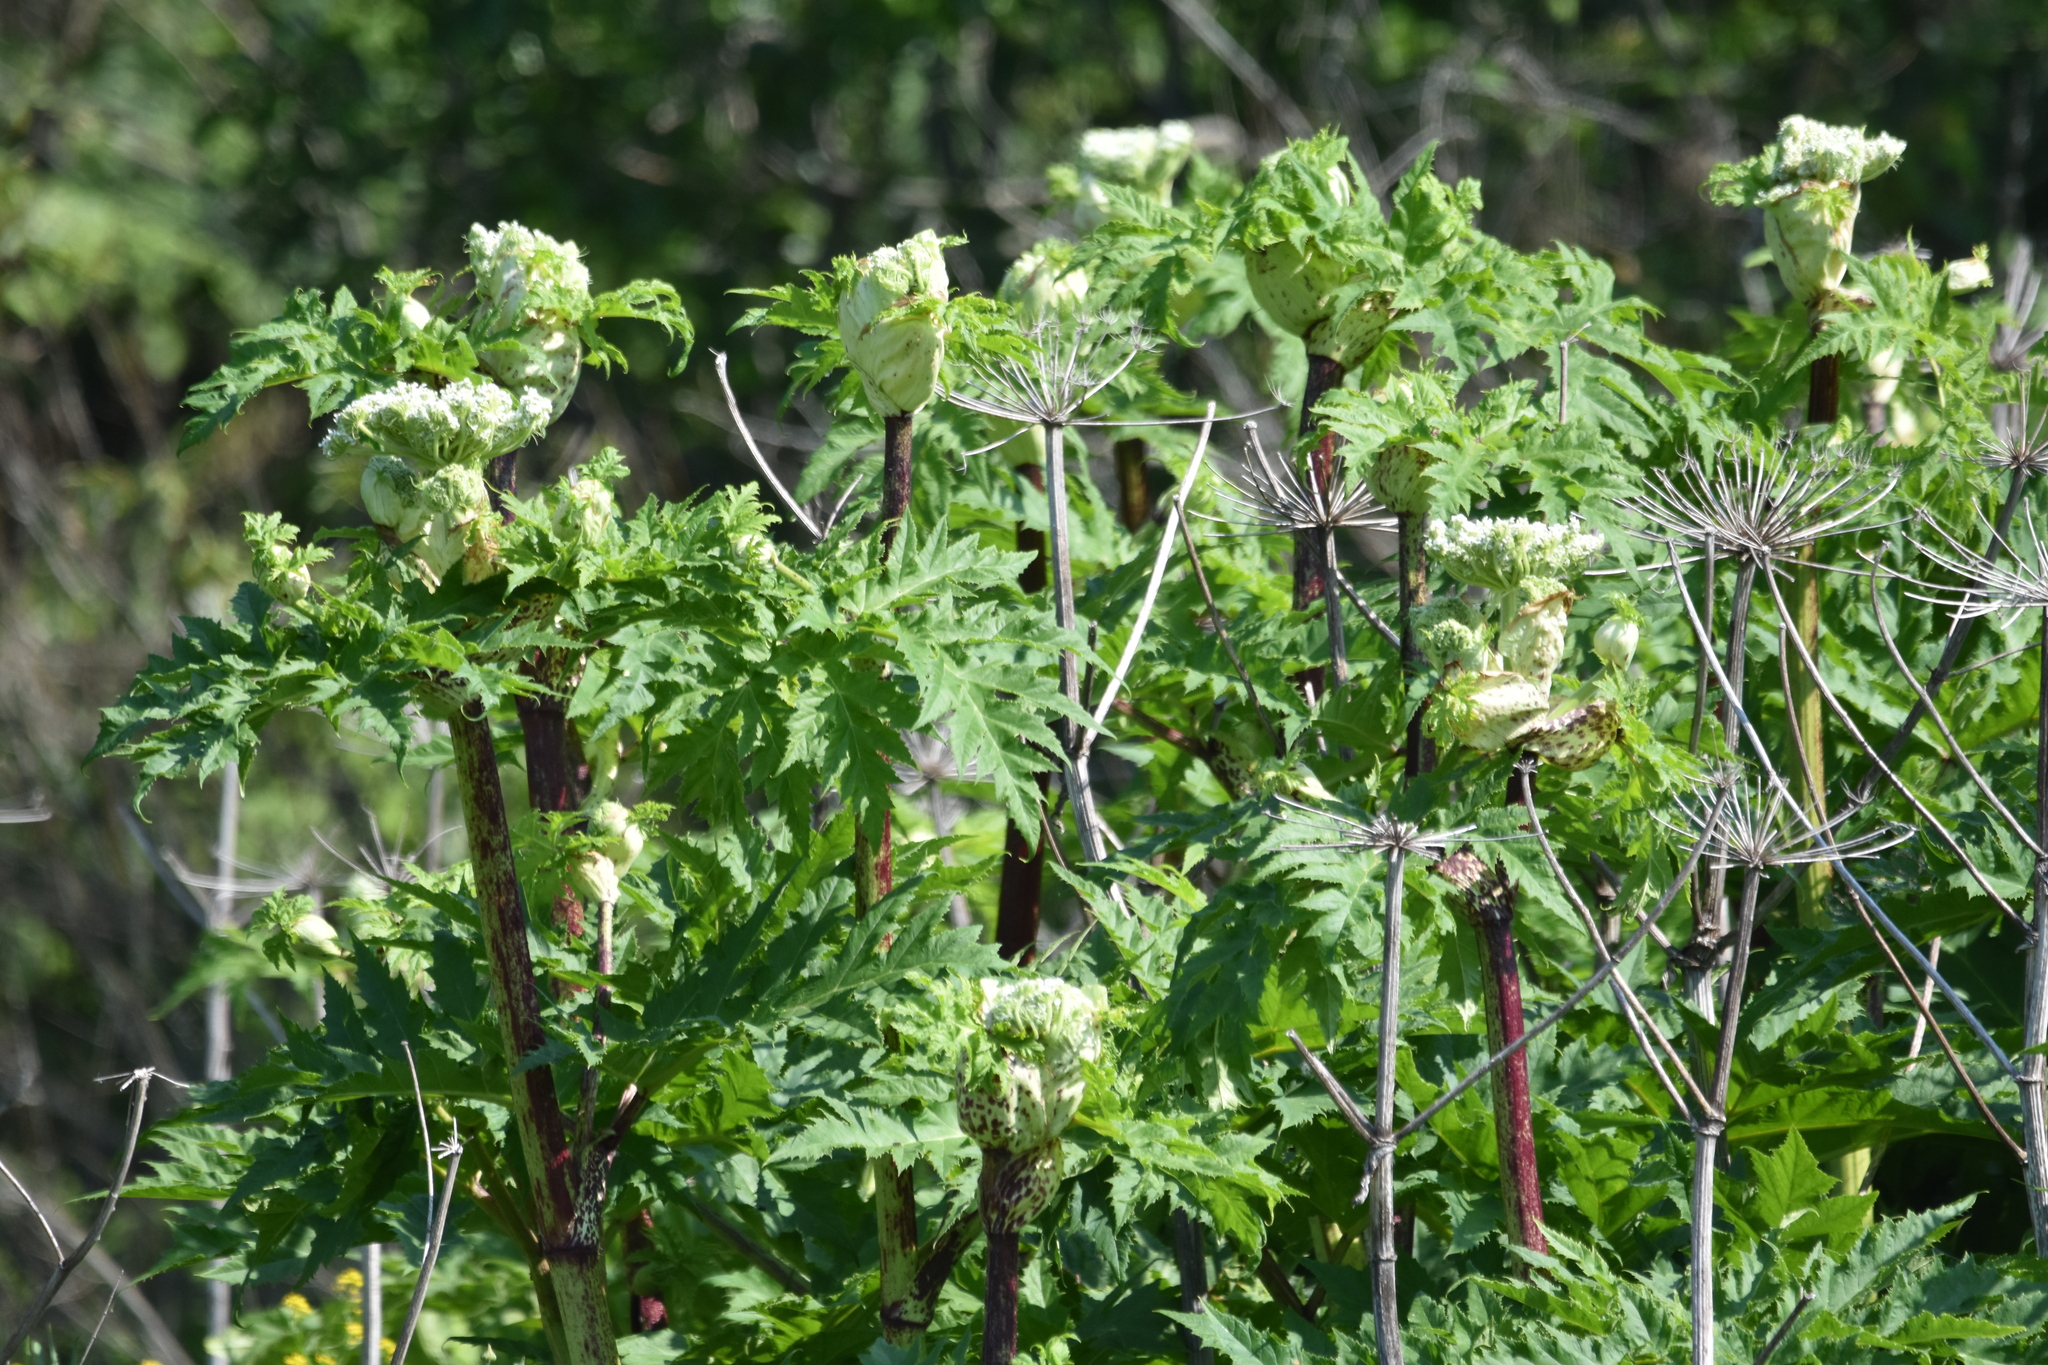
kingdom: Plantae
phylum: Tracheophyta
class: Magnoliopsida
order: Apiales
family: Apiaceae
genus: Heracleum
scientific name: Heracleum mantegazzianum
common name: Giant hogweed
